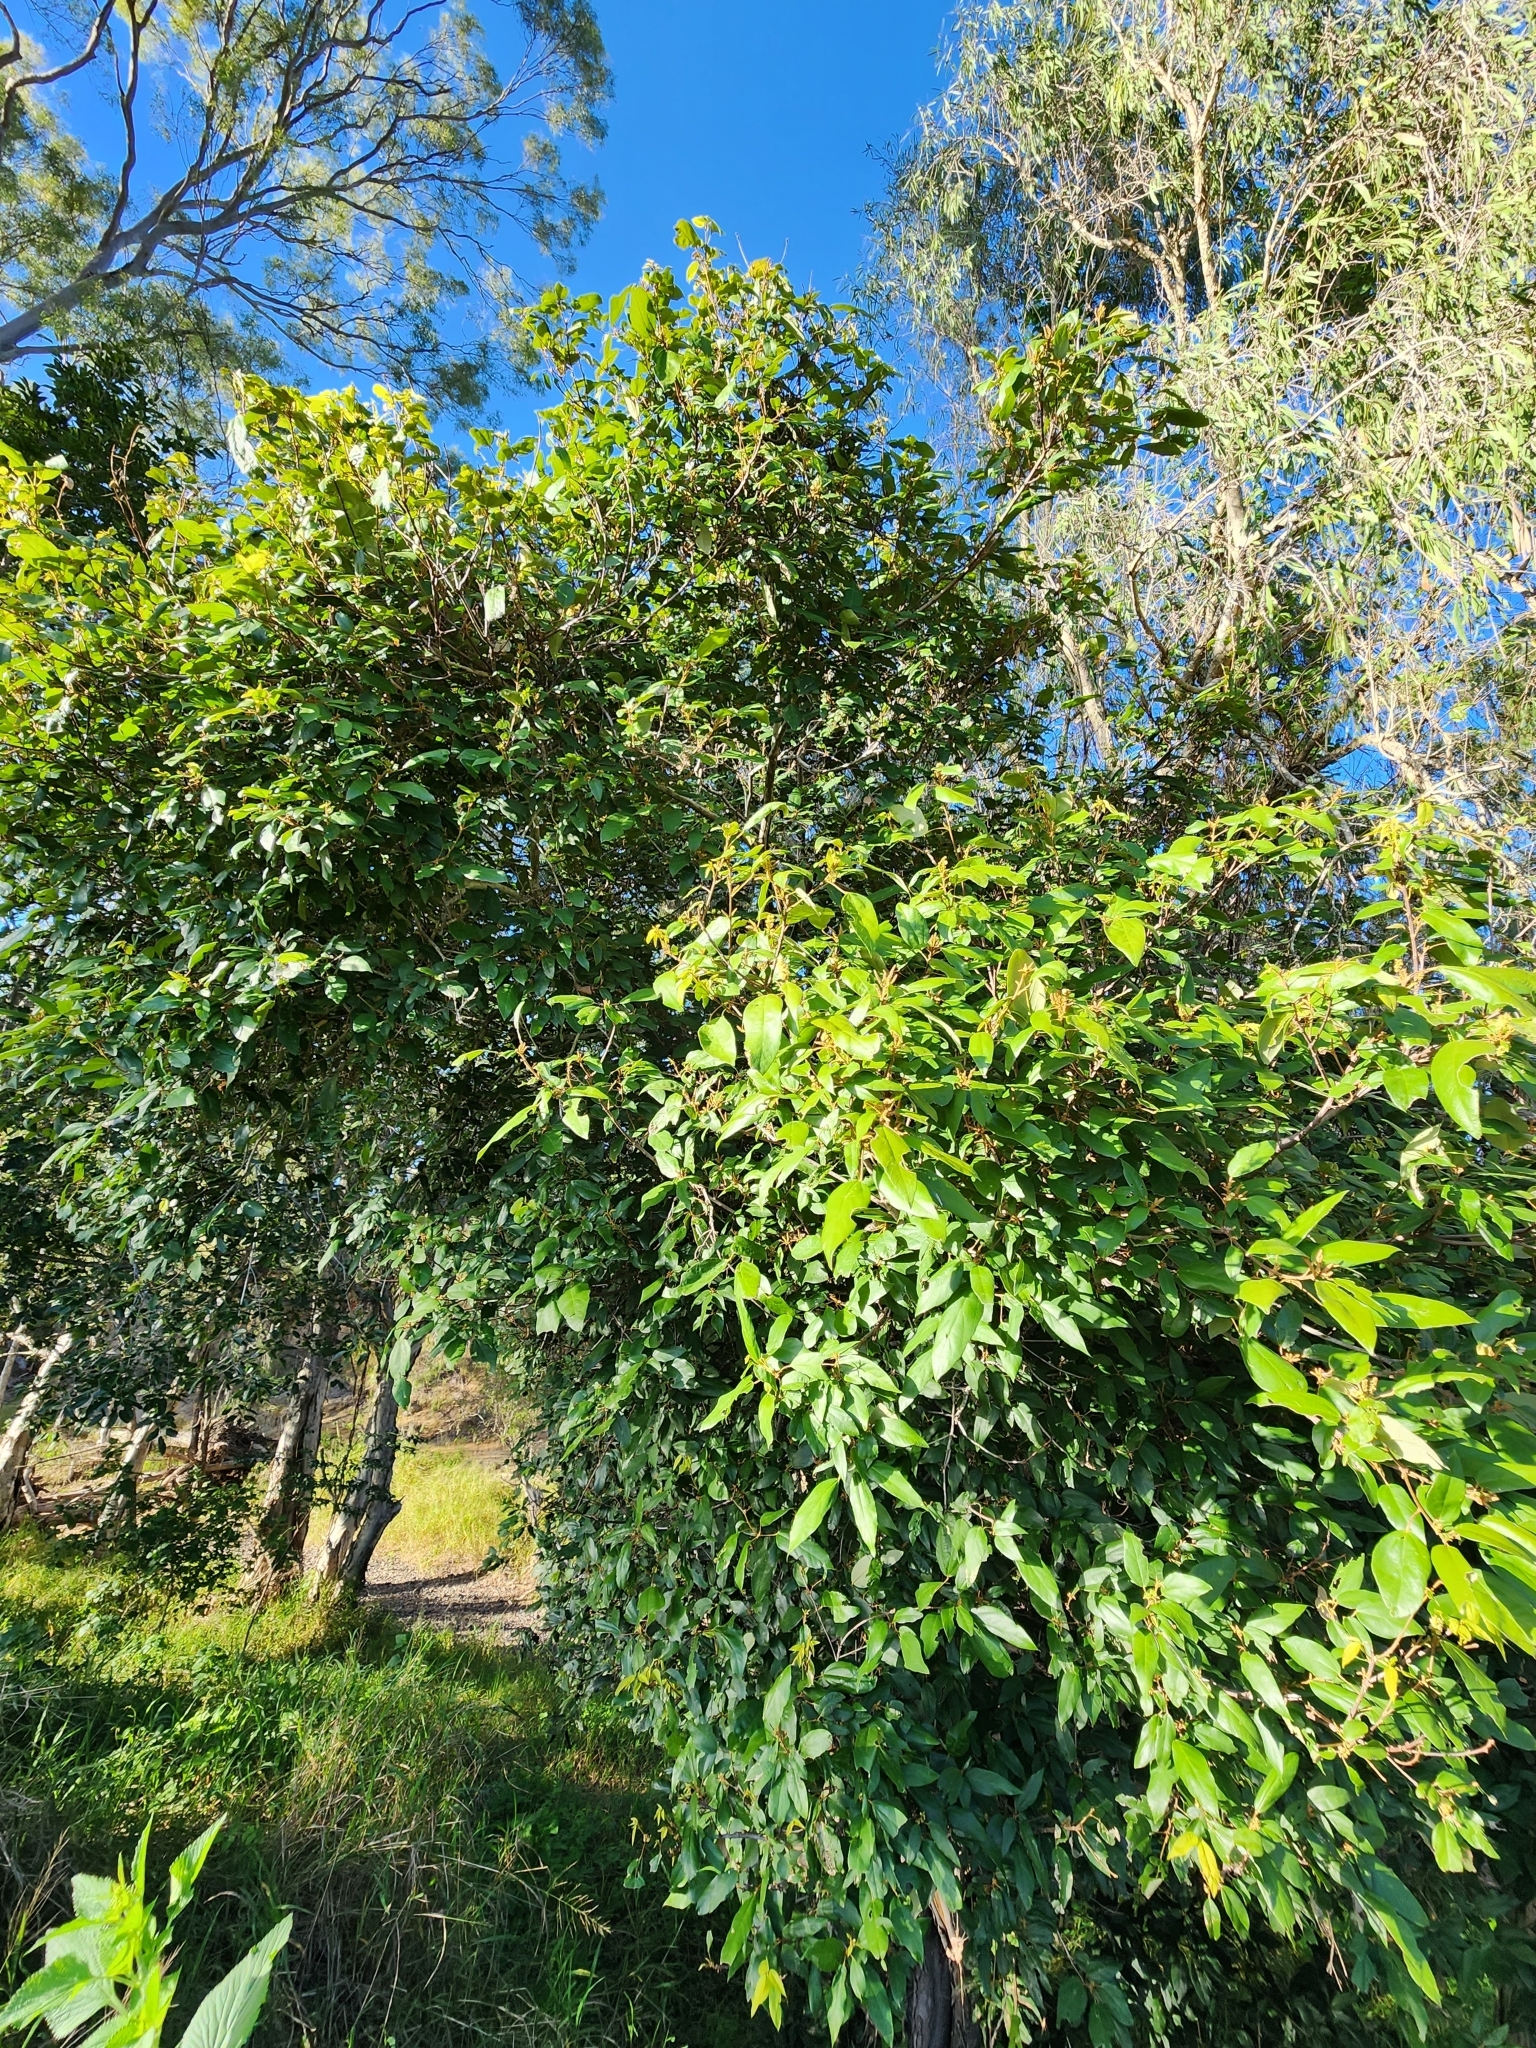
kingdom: Plantae
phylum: Tracheophyta
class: Magnoliopsida
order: Malpighiales
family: Euphorbiaceae
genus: Mallotus
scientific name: Mallotus philippensis
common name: Kamala tree
